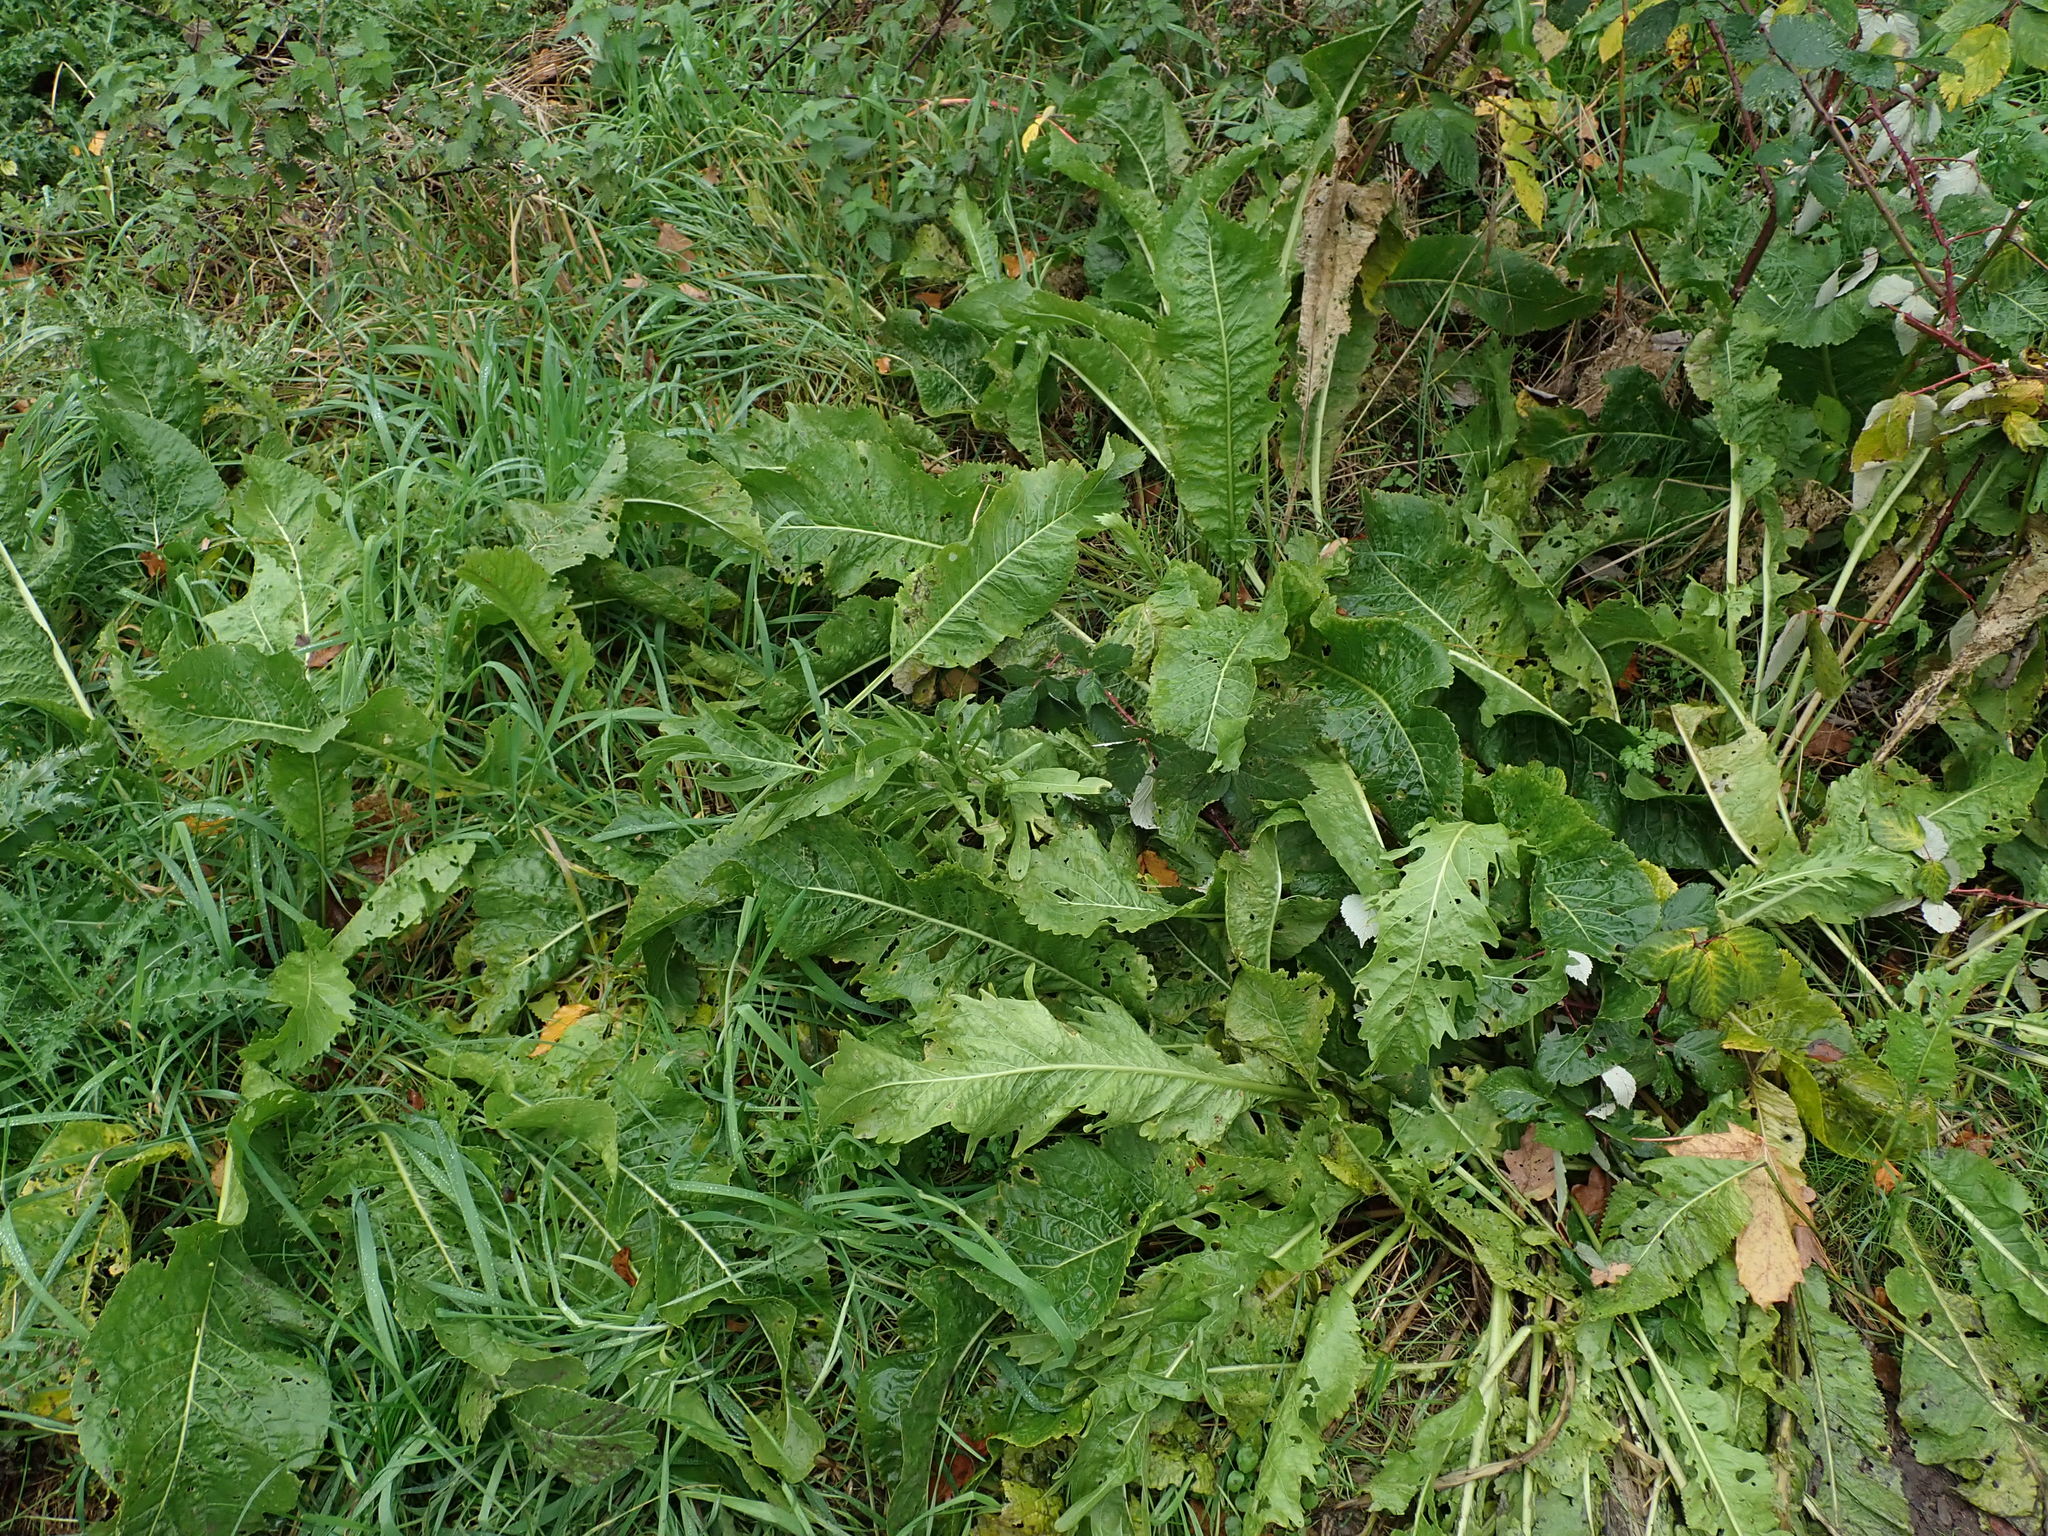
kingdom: Plantae
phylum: Tracheophyta
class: Magnoliopsida
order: Brassicales
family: Brassicaceae
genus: Armoracia
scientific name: Armoracia rusticana
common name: Horseradish
